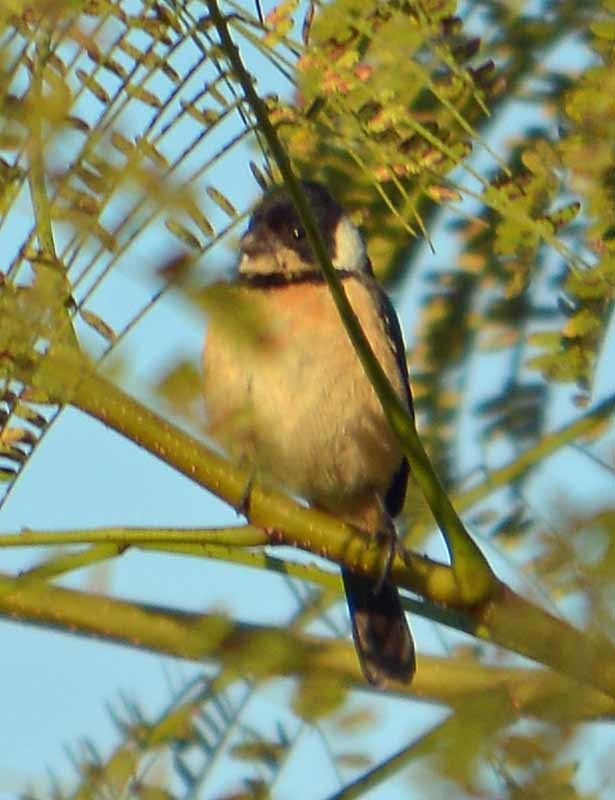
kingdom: Animalia
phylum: Chordata
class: Aves
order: Passeriformes
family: Thraupidae
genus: Sporophila
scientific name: Sporophila torqueola
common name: White-collared seedeater
